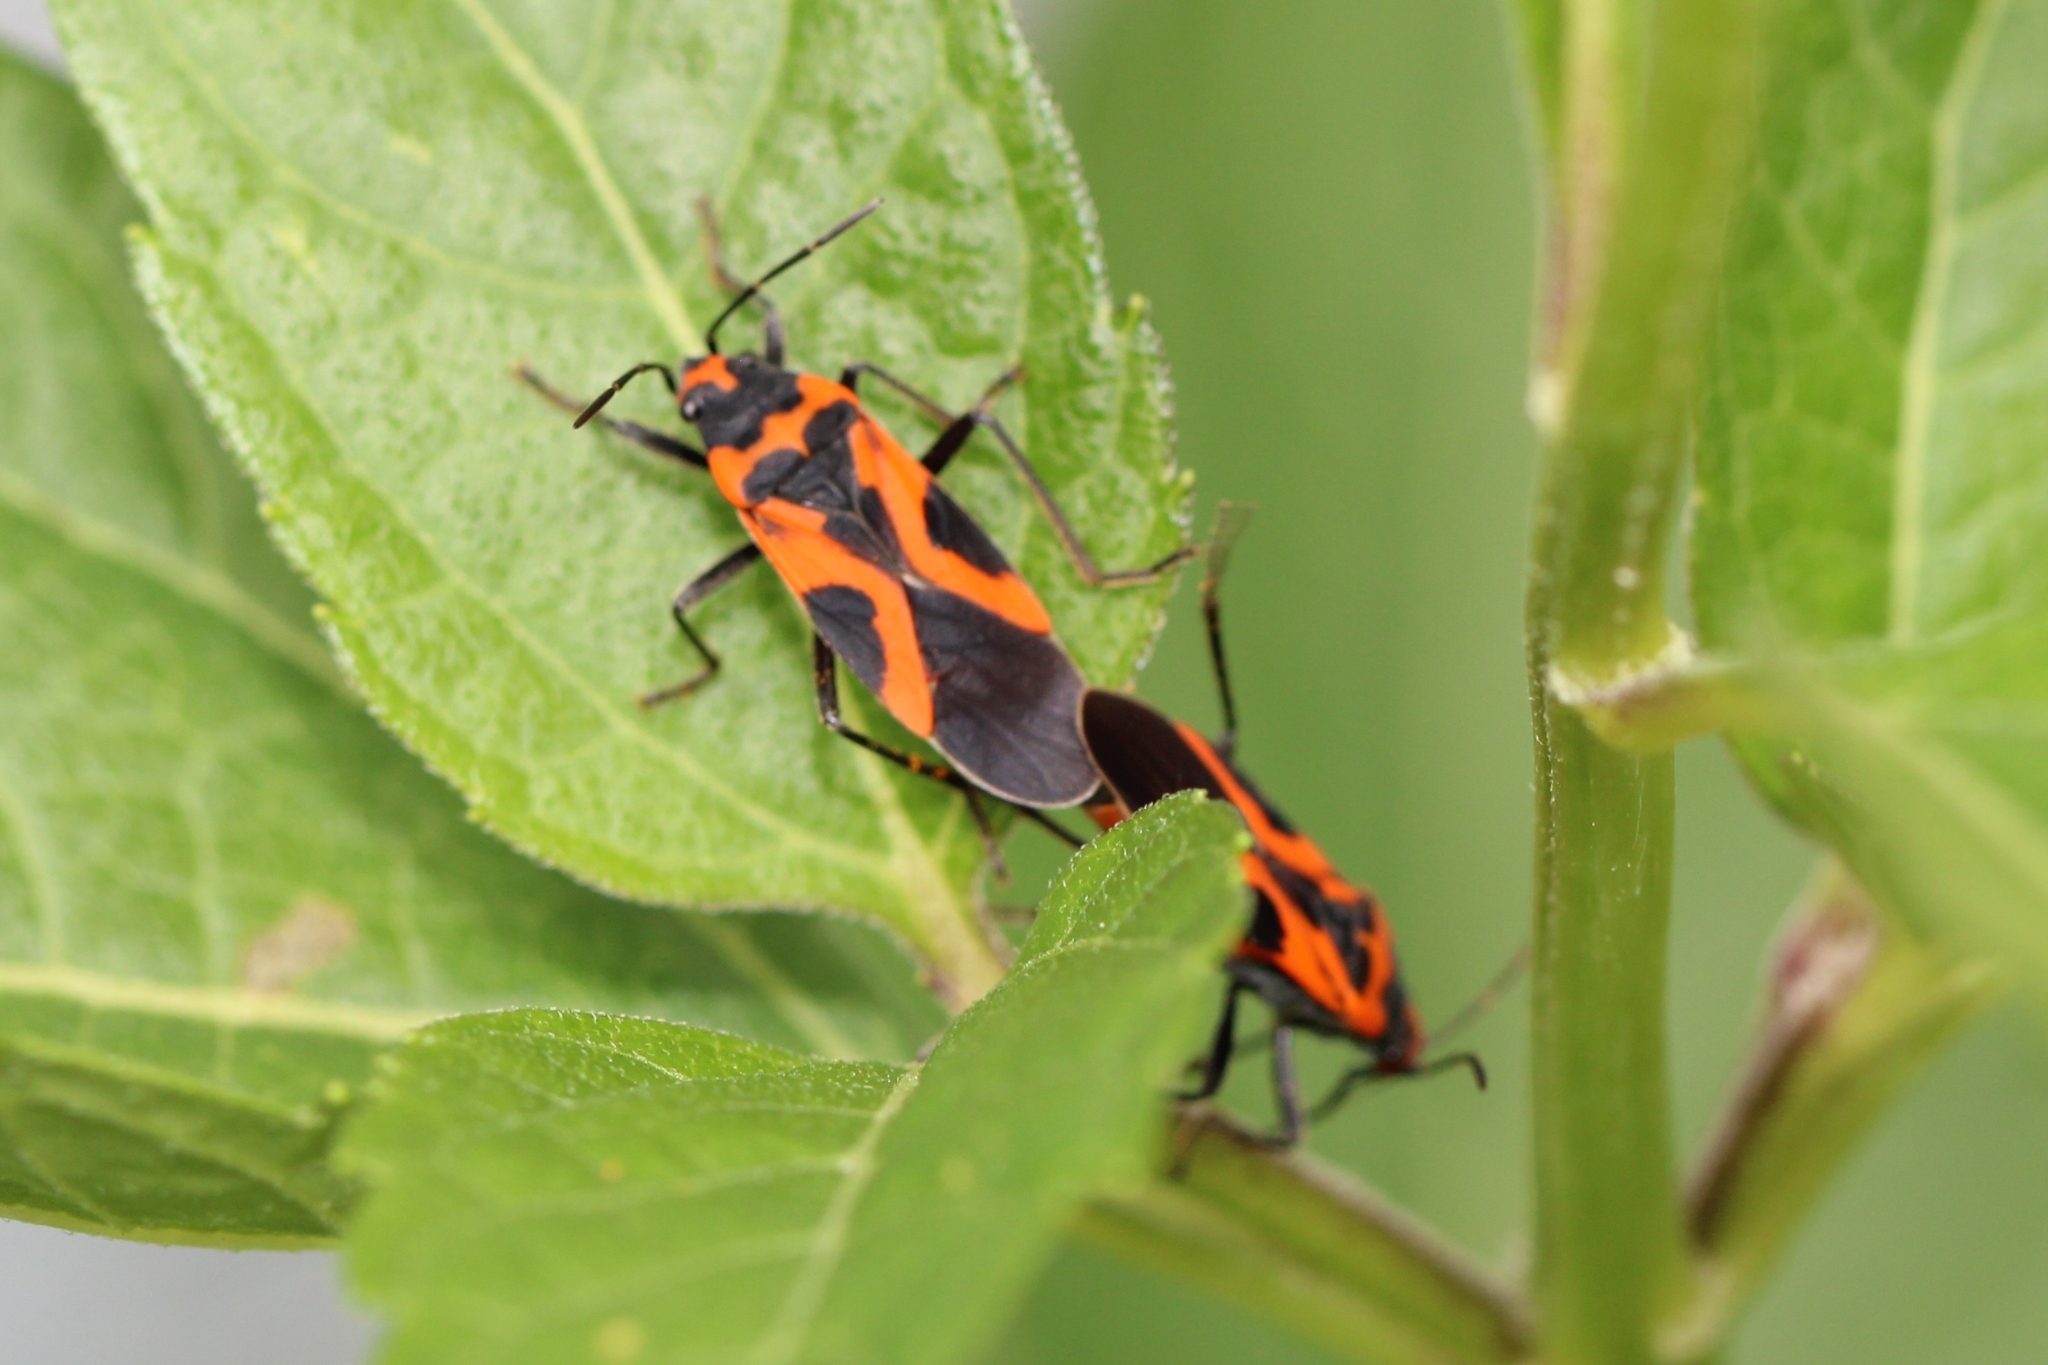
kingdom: Animalia
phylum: Arthropoda
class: Insecta
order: Hemiptera
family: Lygaeidae
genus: Lygaeus
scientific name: Lygaeus turcicus
